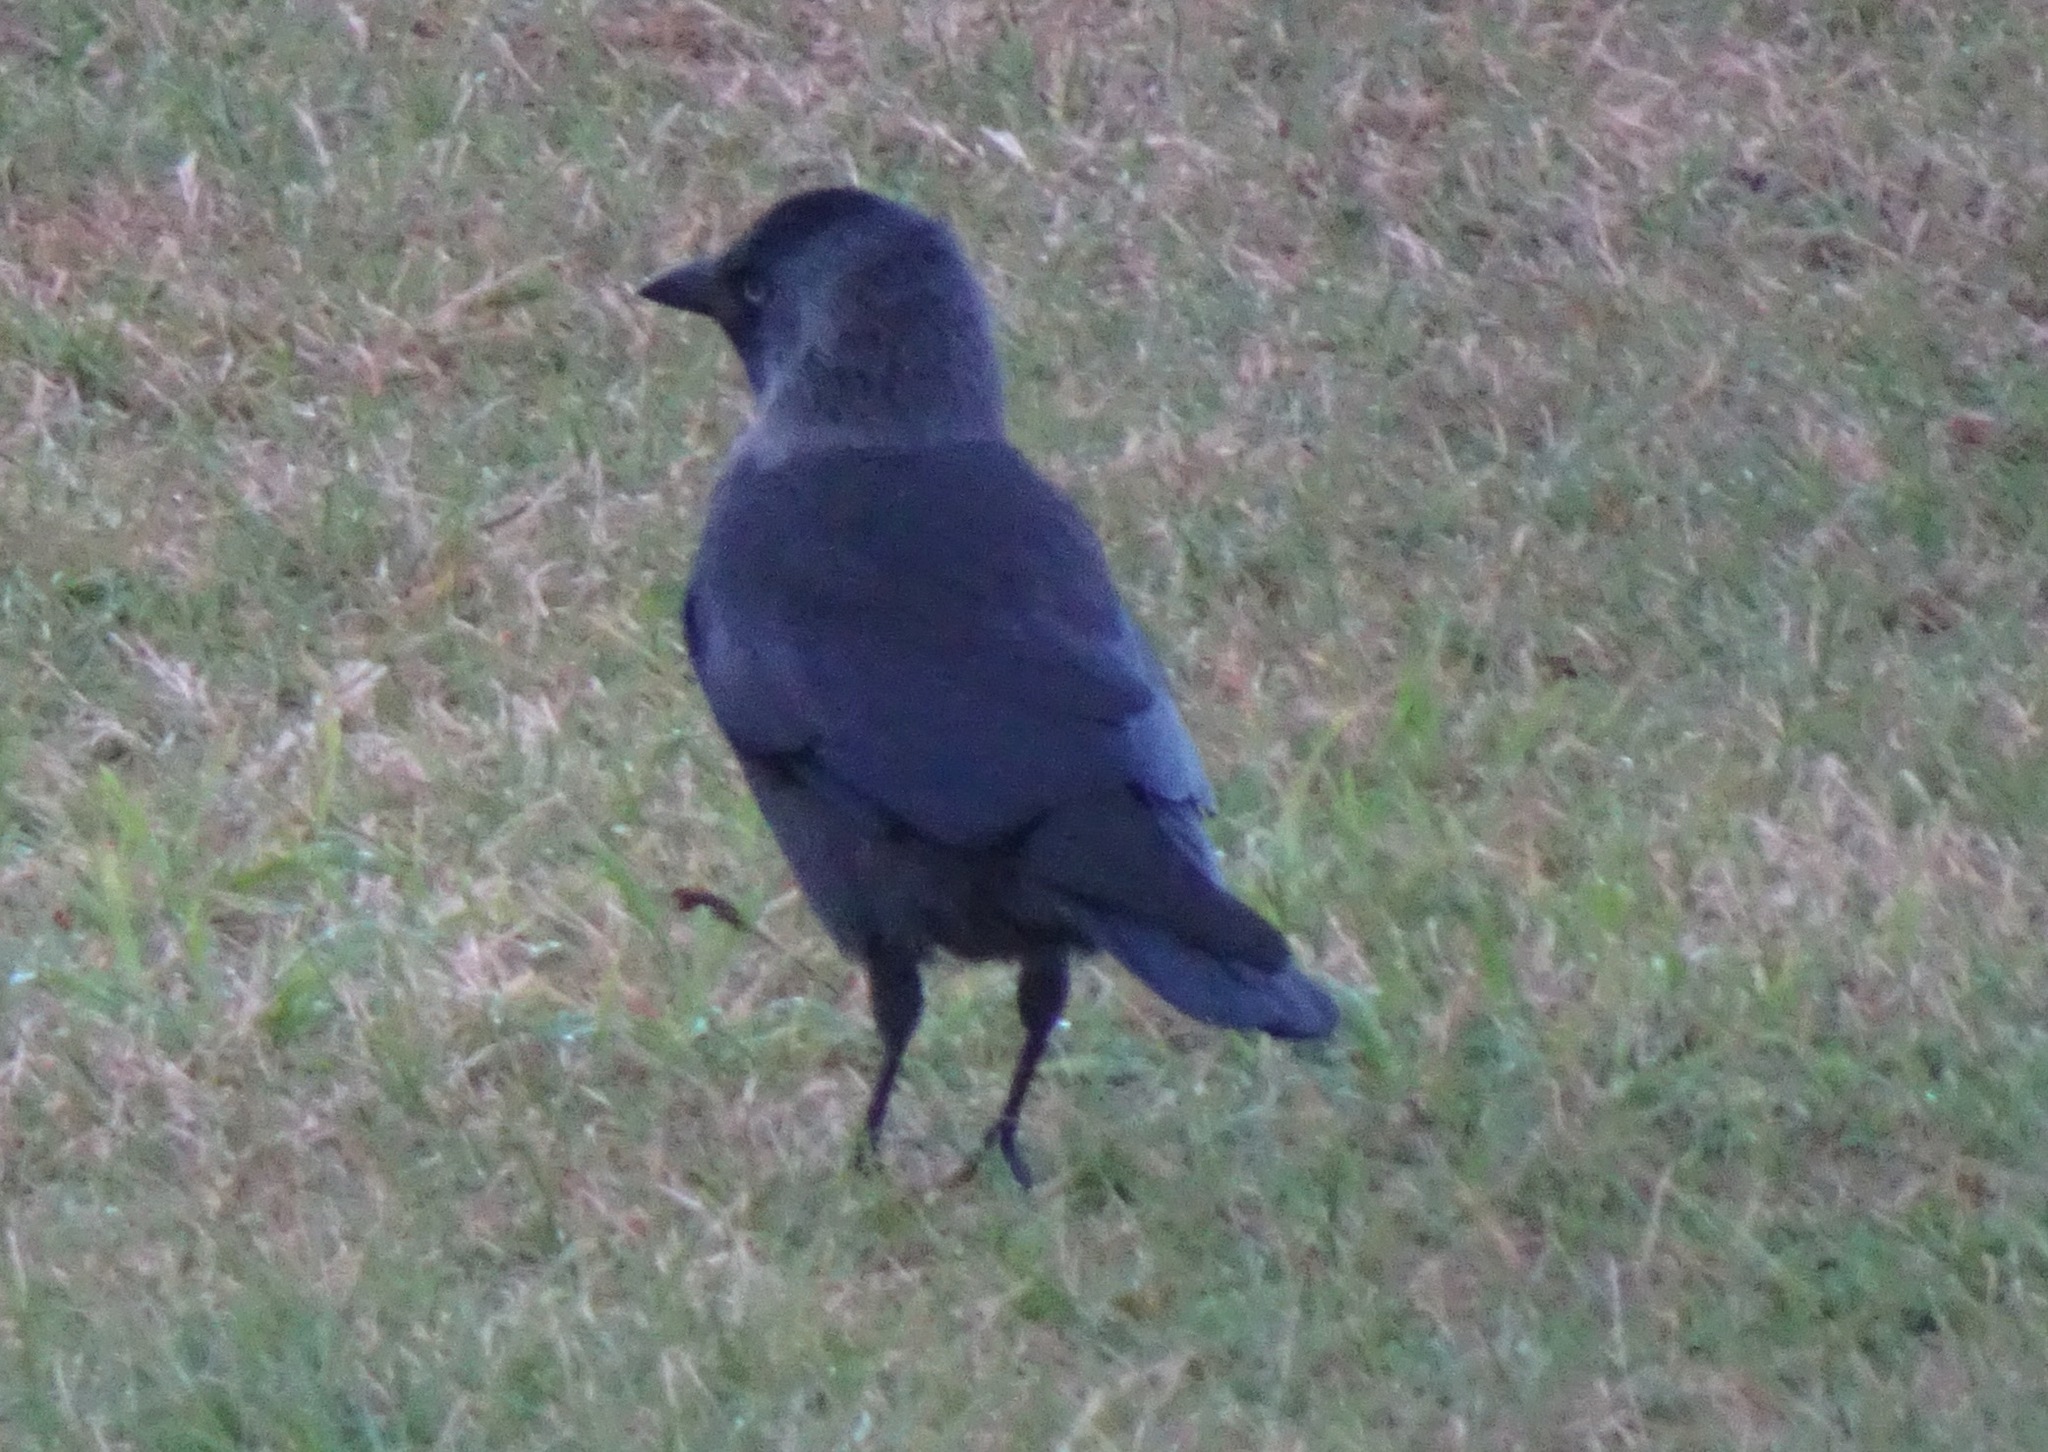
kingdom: Animalia
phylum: Chordata
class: Aves
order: Passeriformes
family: Corvidae
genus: Coloeus
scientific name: Coloeus monedula
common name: Western jackdaw
